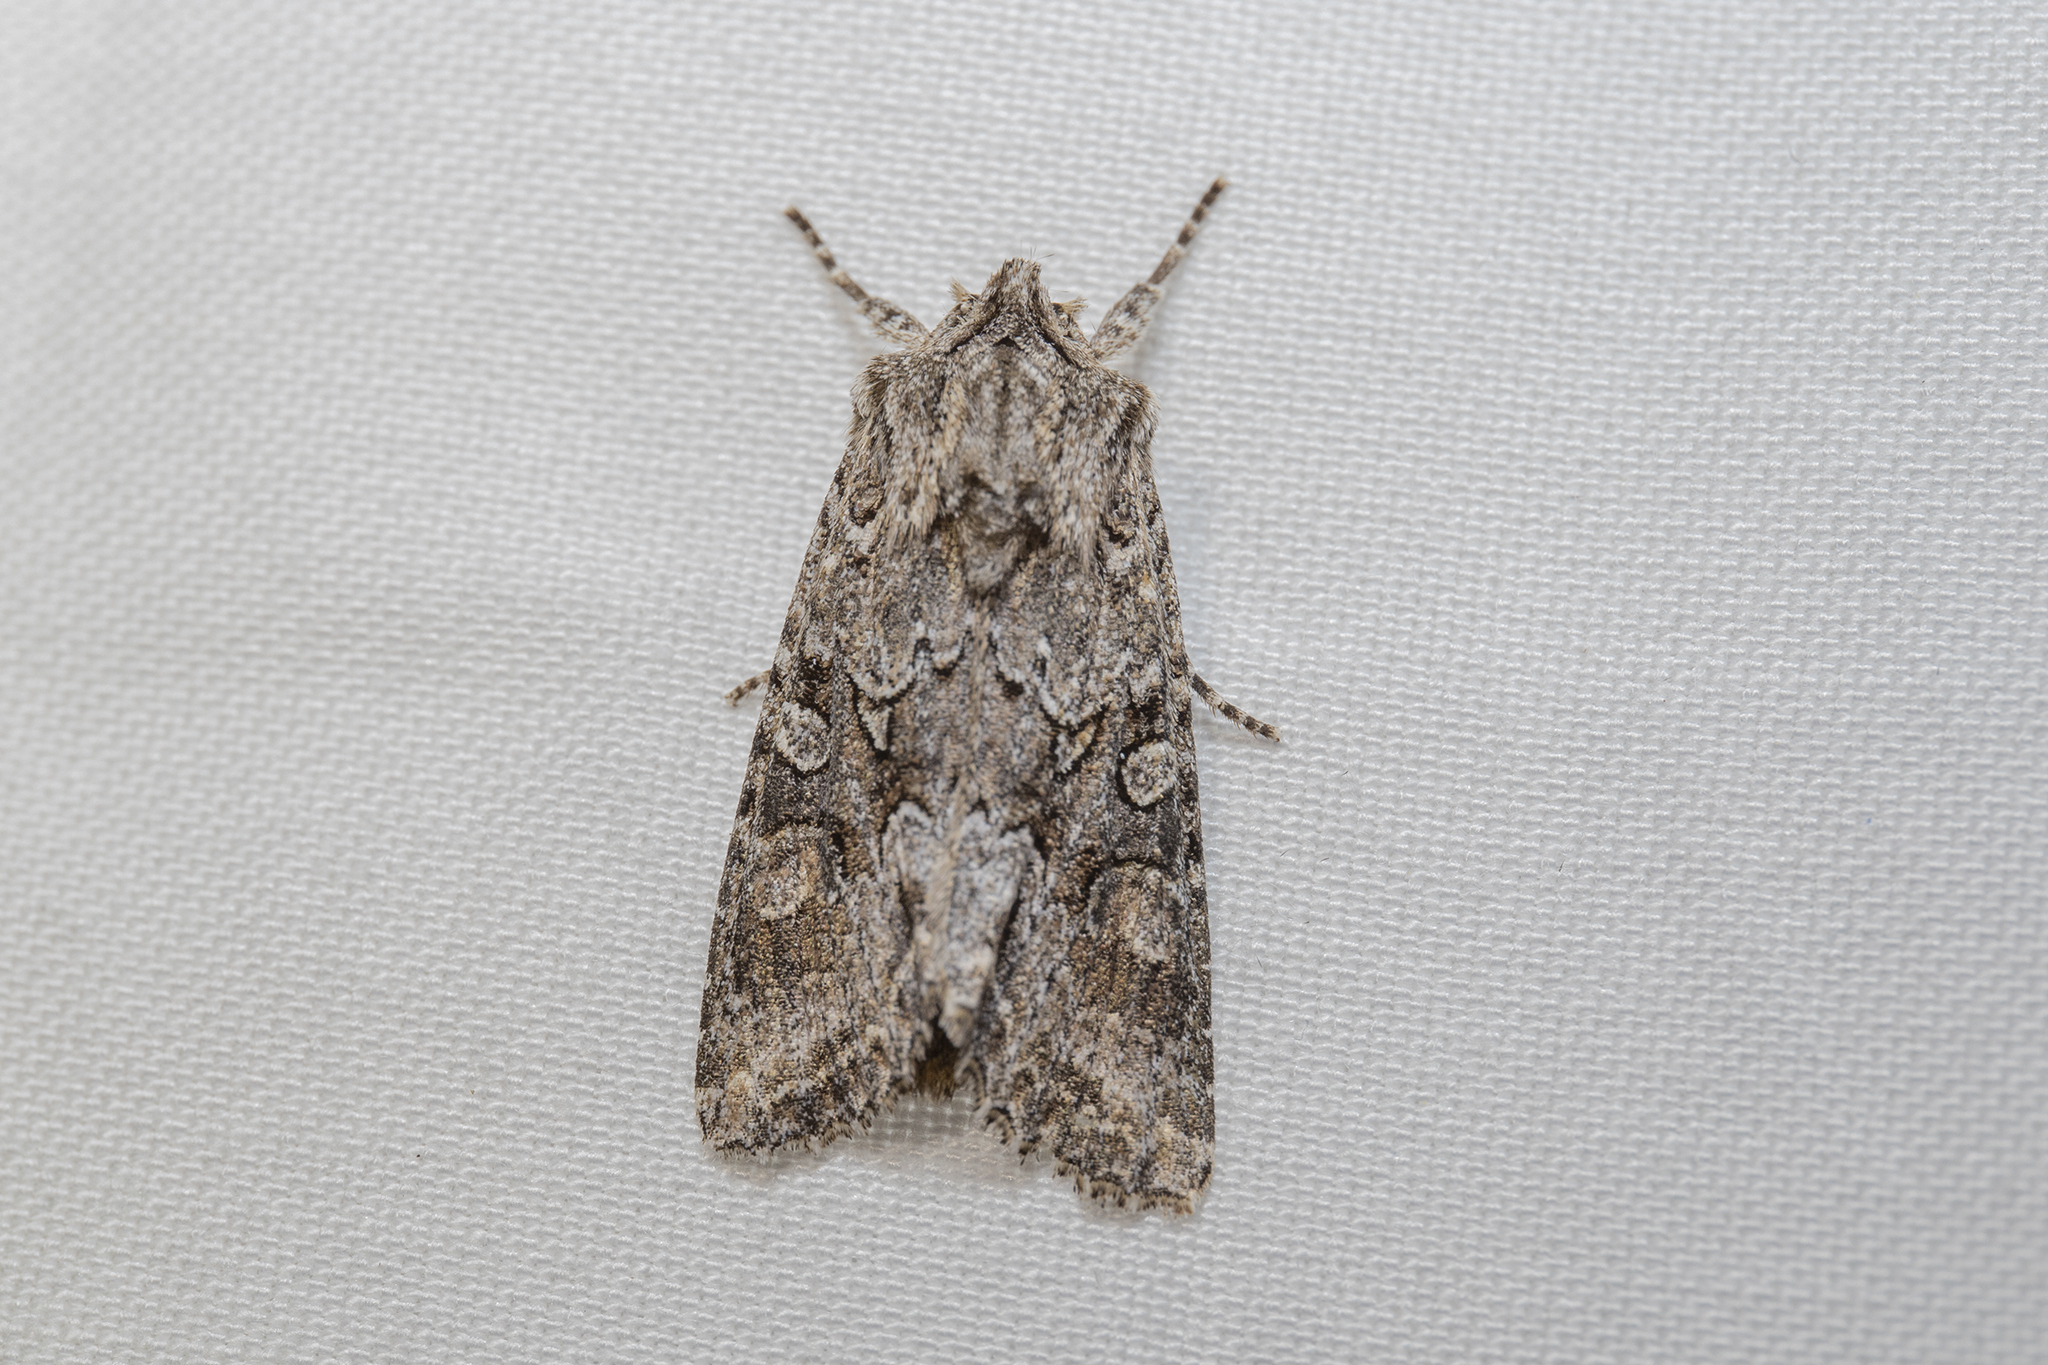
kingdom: Animalia
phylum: Arthropoda
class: Insecta
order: Lepidoptera
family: Noctuidae
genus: Ichneutica
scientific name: Ichneutica mutans
